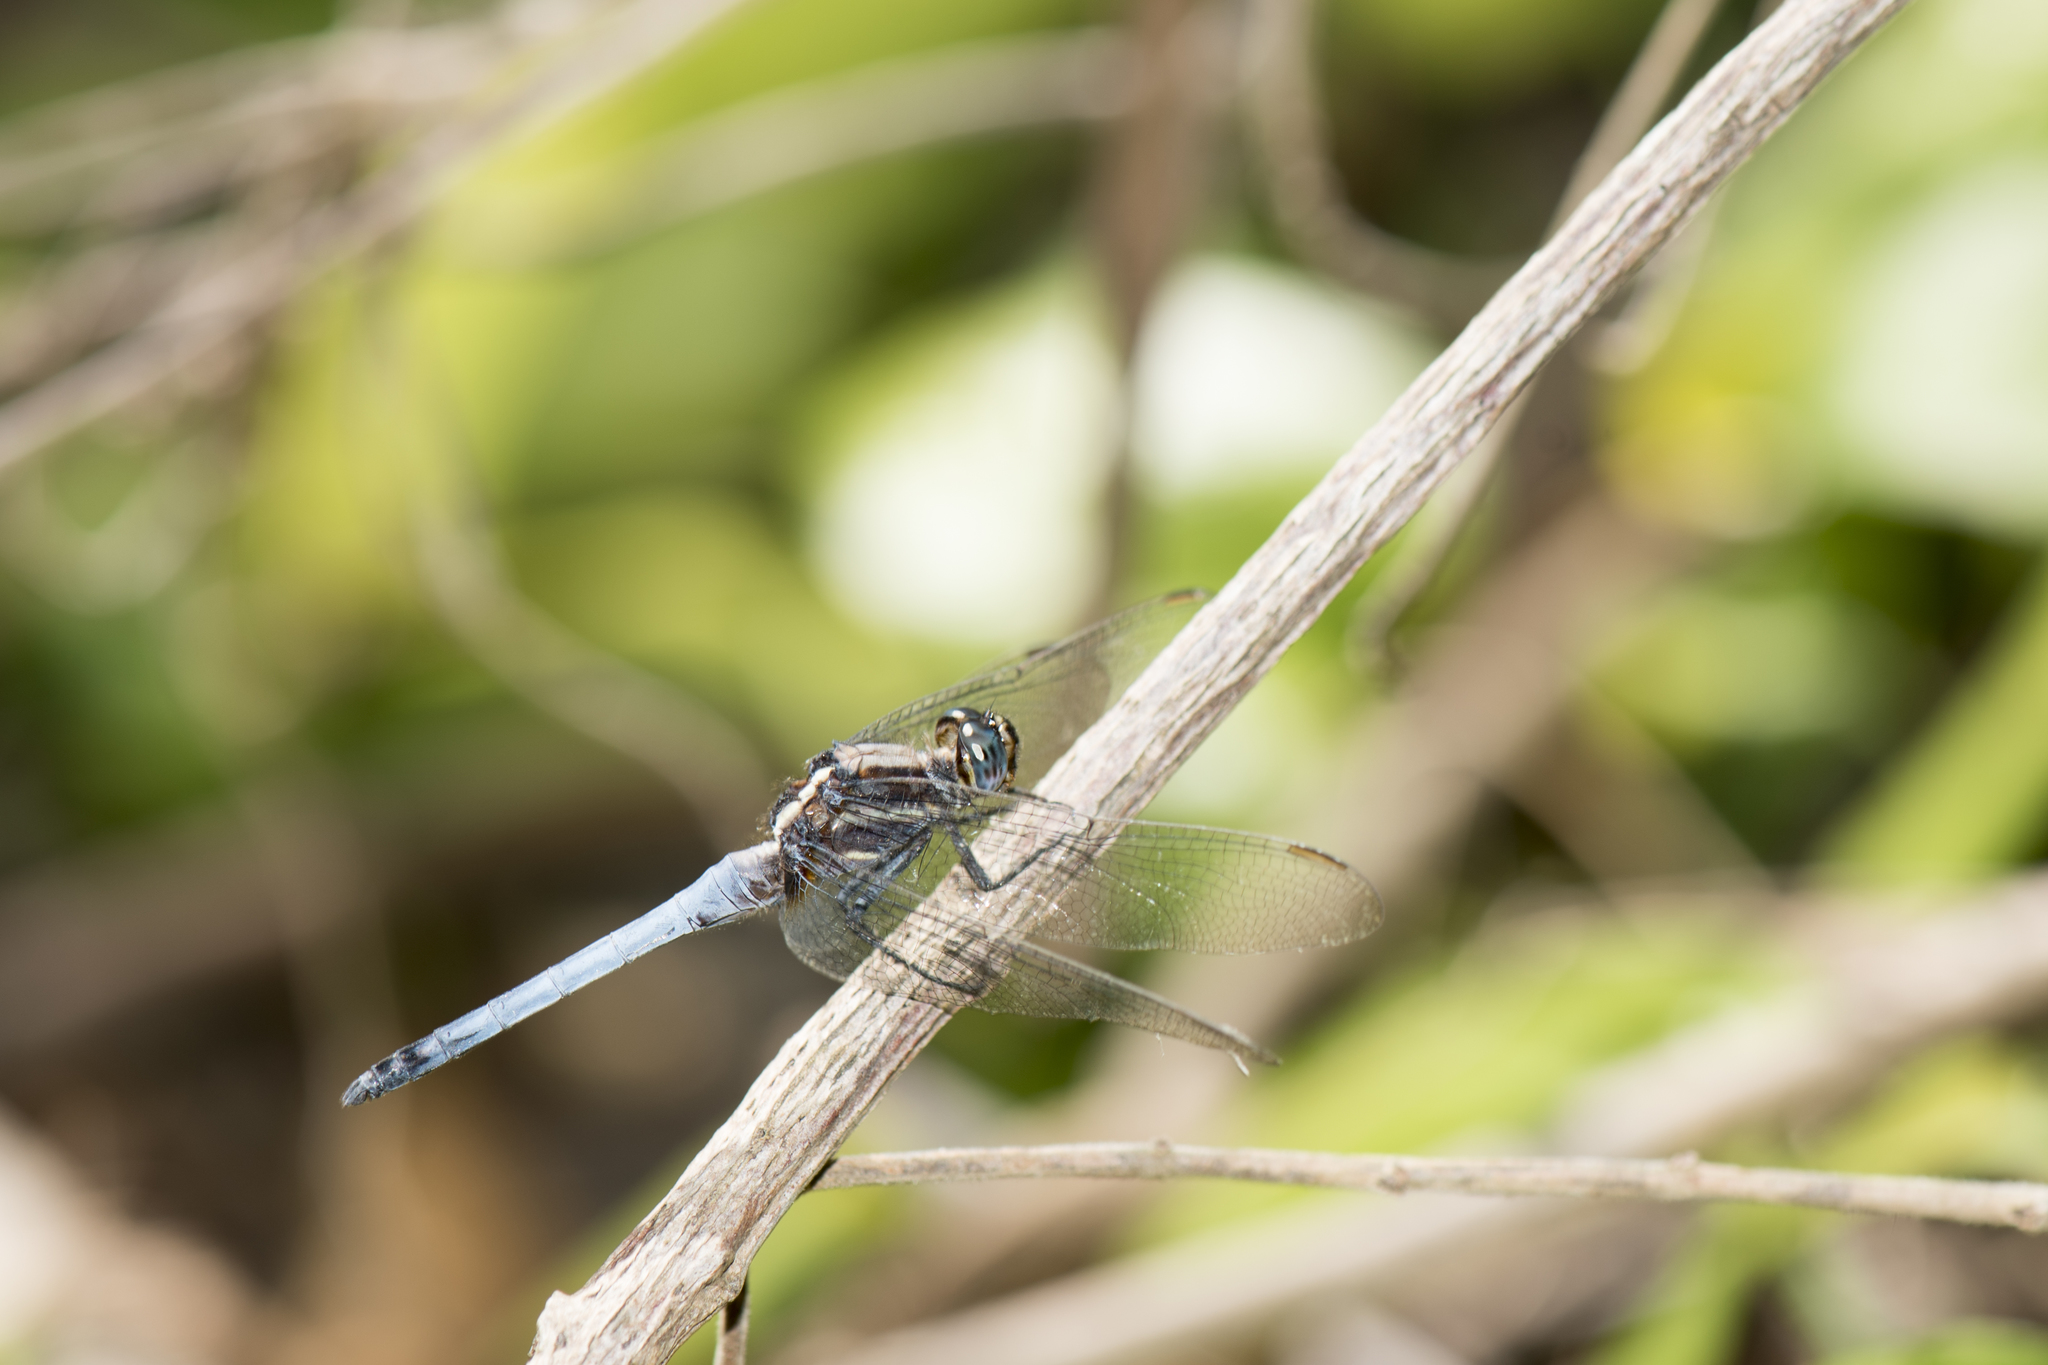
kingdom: Animalia
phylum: Arthropoda
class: Insecta
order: Odonata
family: Libellulidae
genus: Orthetrum
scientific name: Orthetrum glaucum
